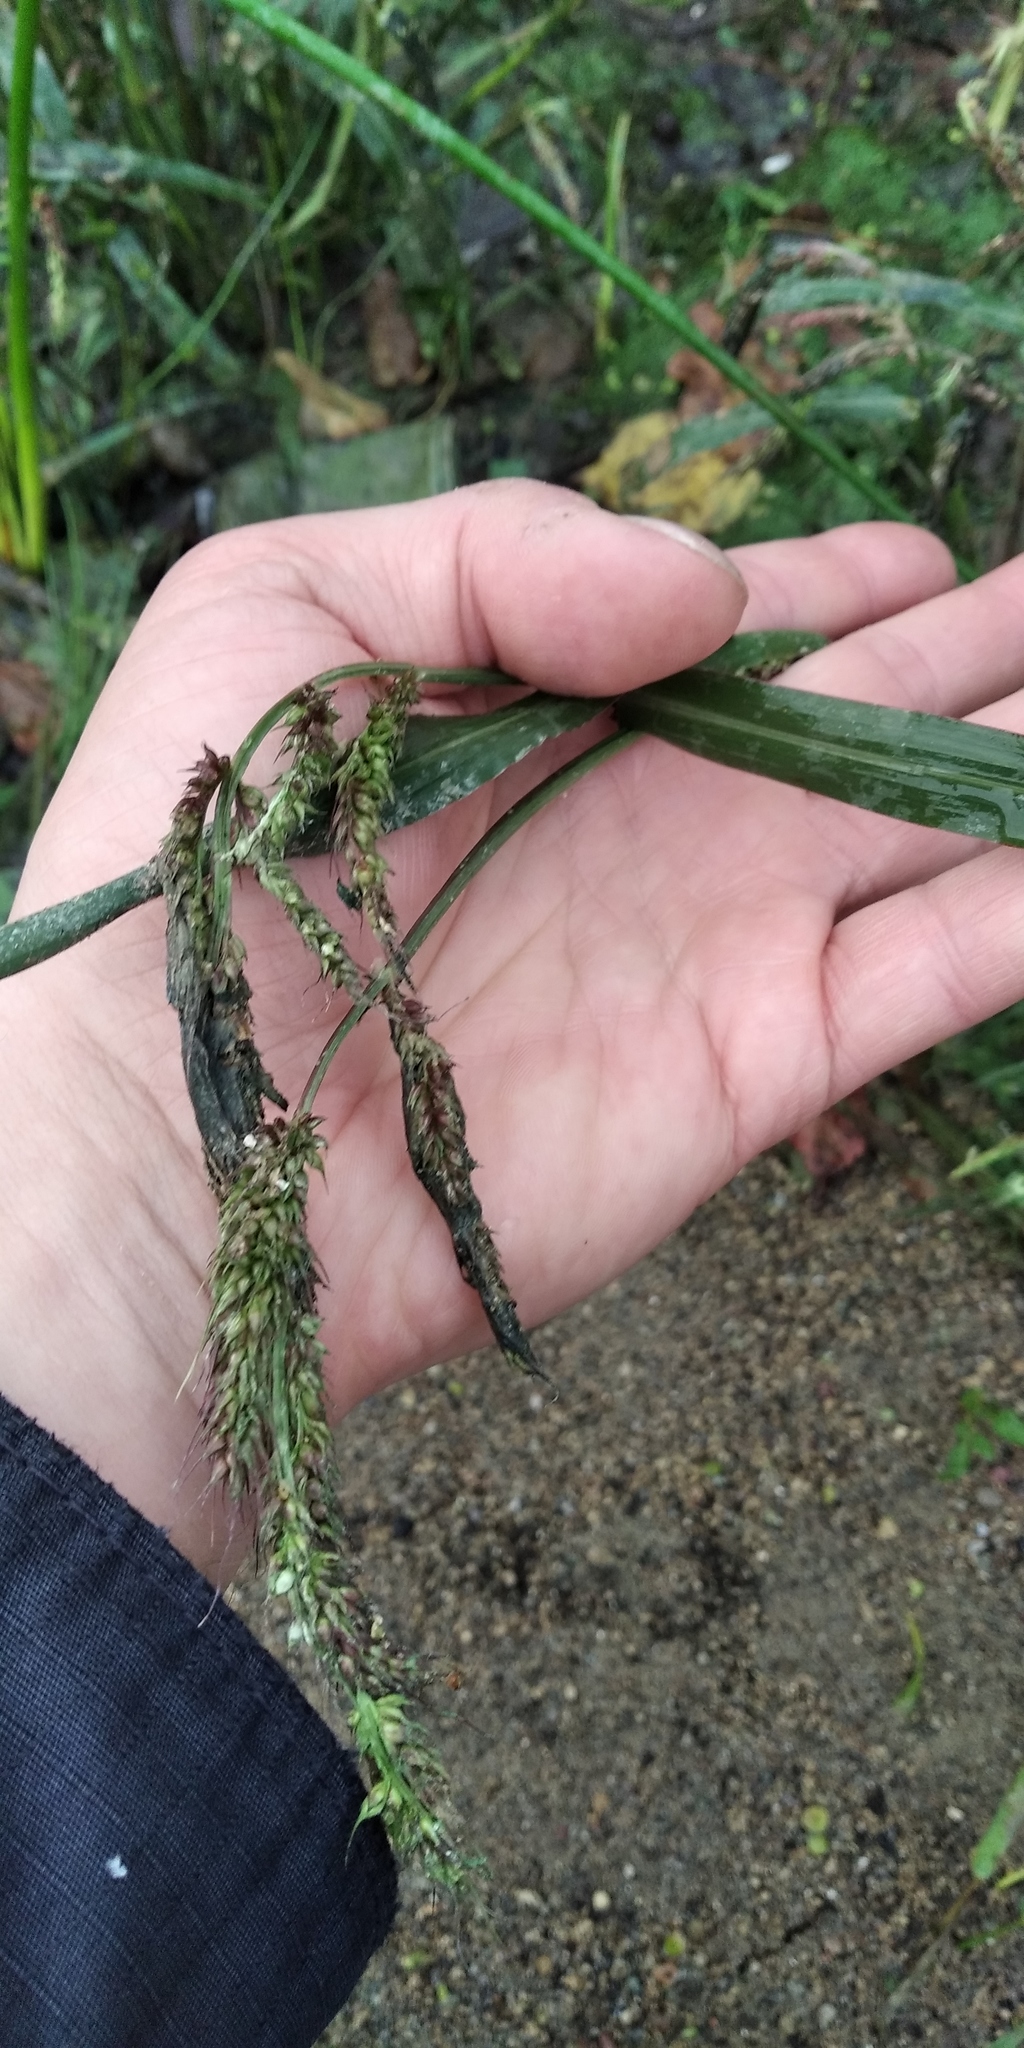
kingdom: Plantae
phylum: Tracheophyta
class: Liliopsida
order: Poales
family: Poaceae
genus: Echinochloa
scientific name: Echinochloa crus-galli
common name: Cockspur
